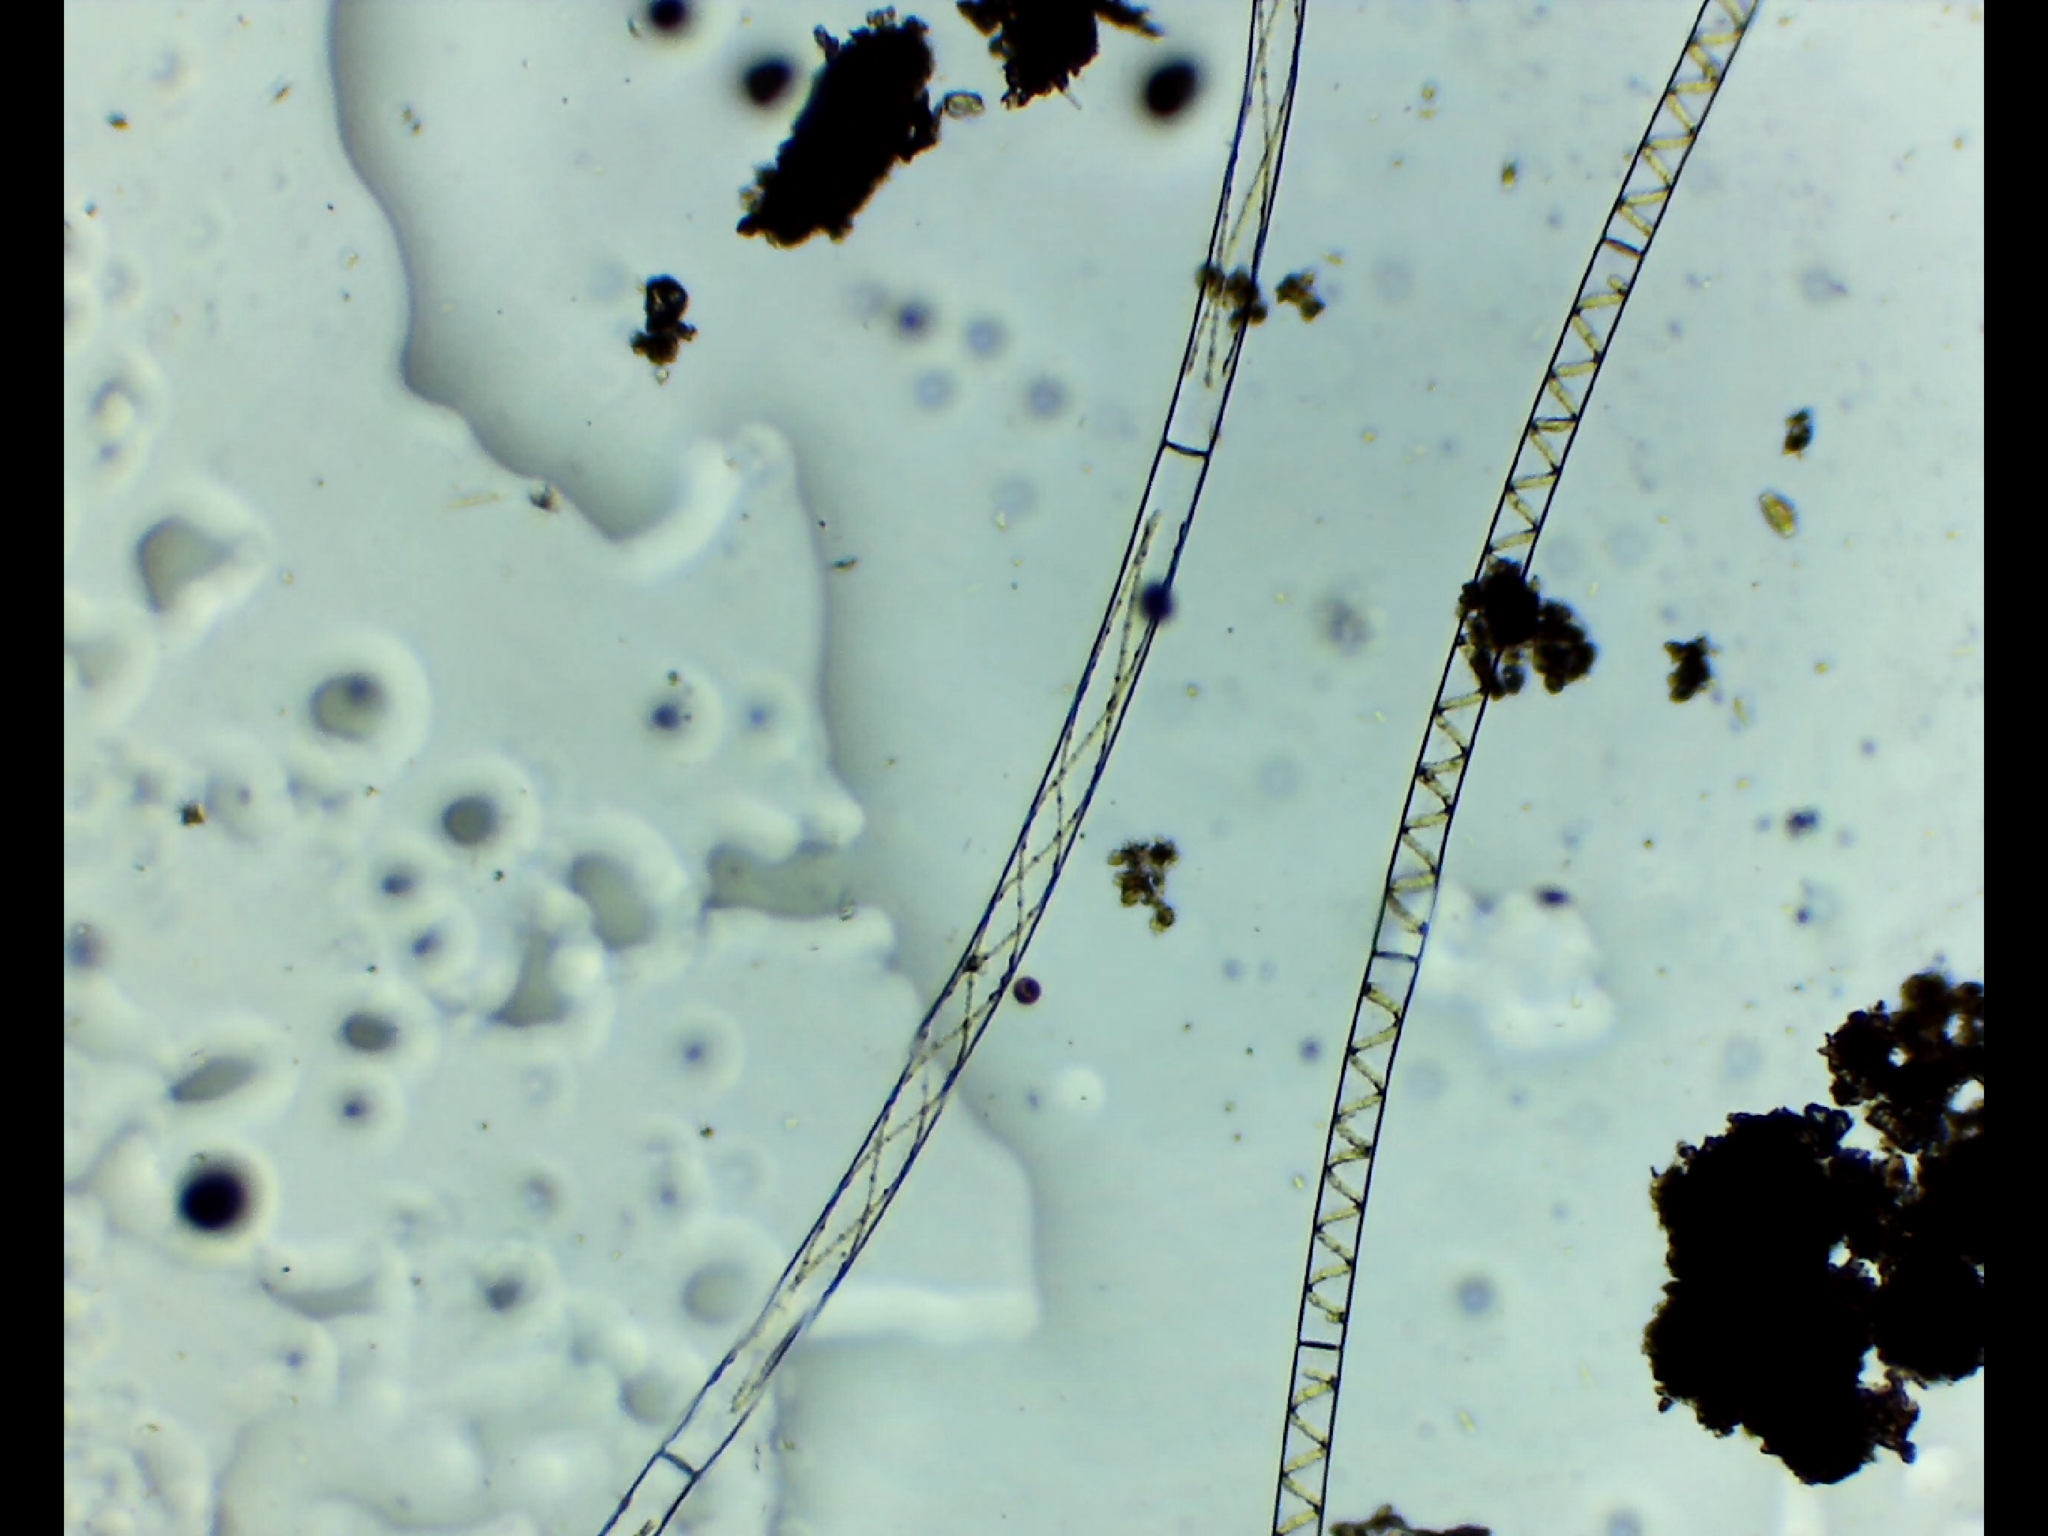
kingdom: Plantae
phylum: Charophyta
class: Zygnematophyceae
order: Zygnematales
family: Zygnemataceae
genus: Spirogyra
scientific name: Spirogyra
